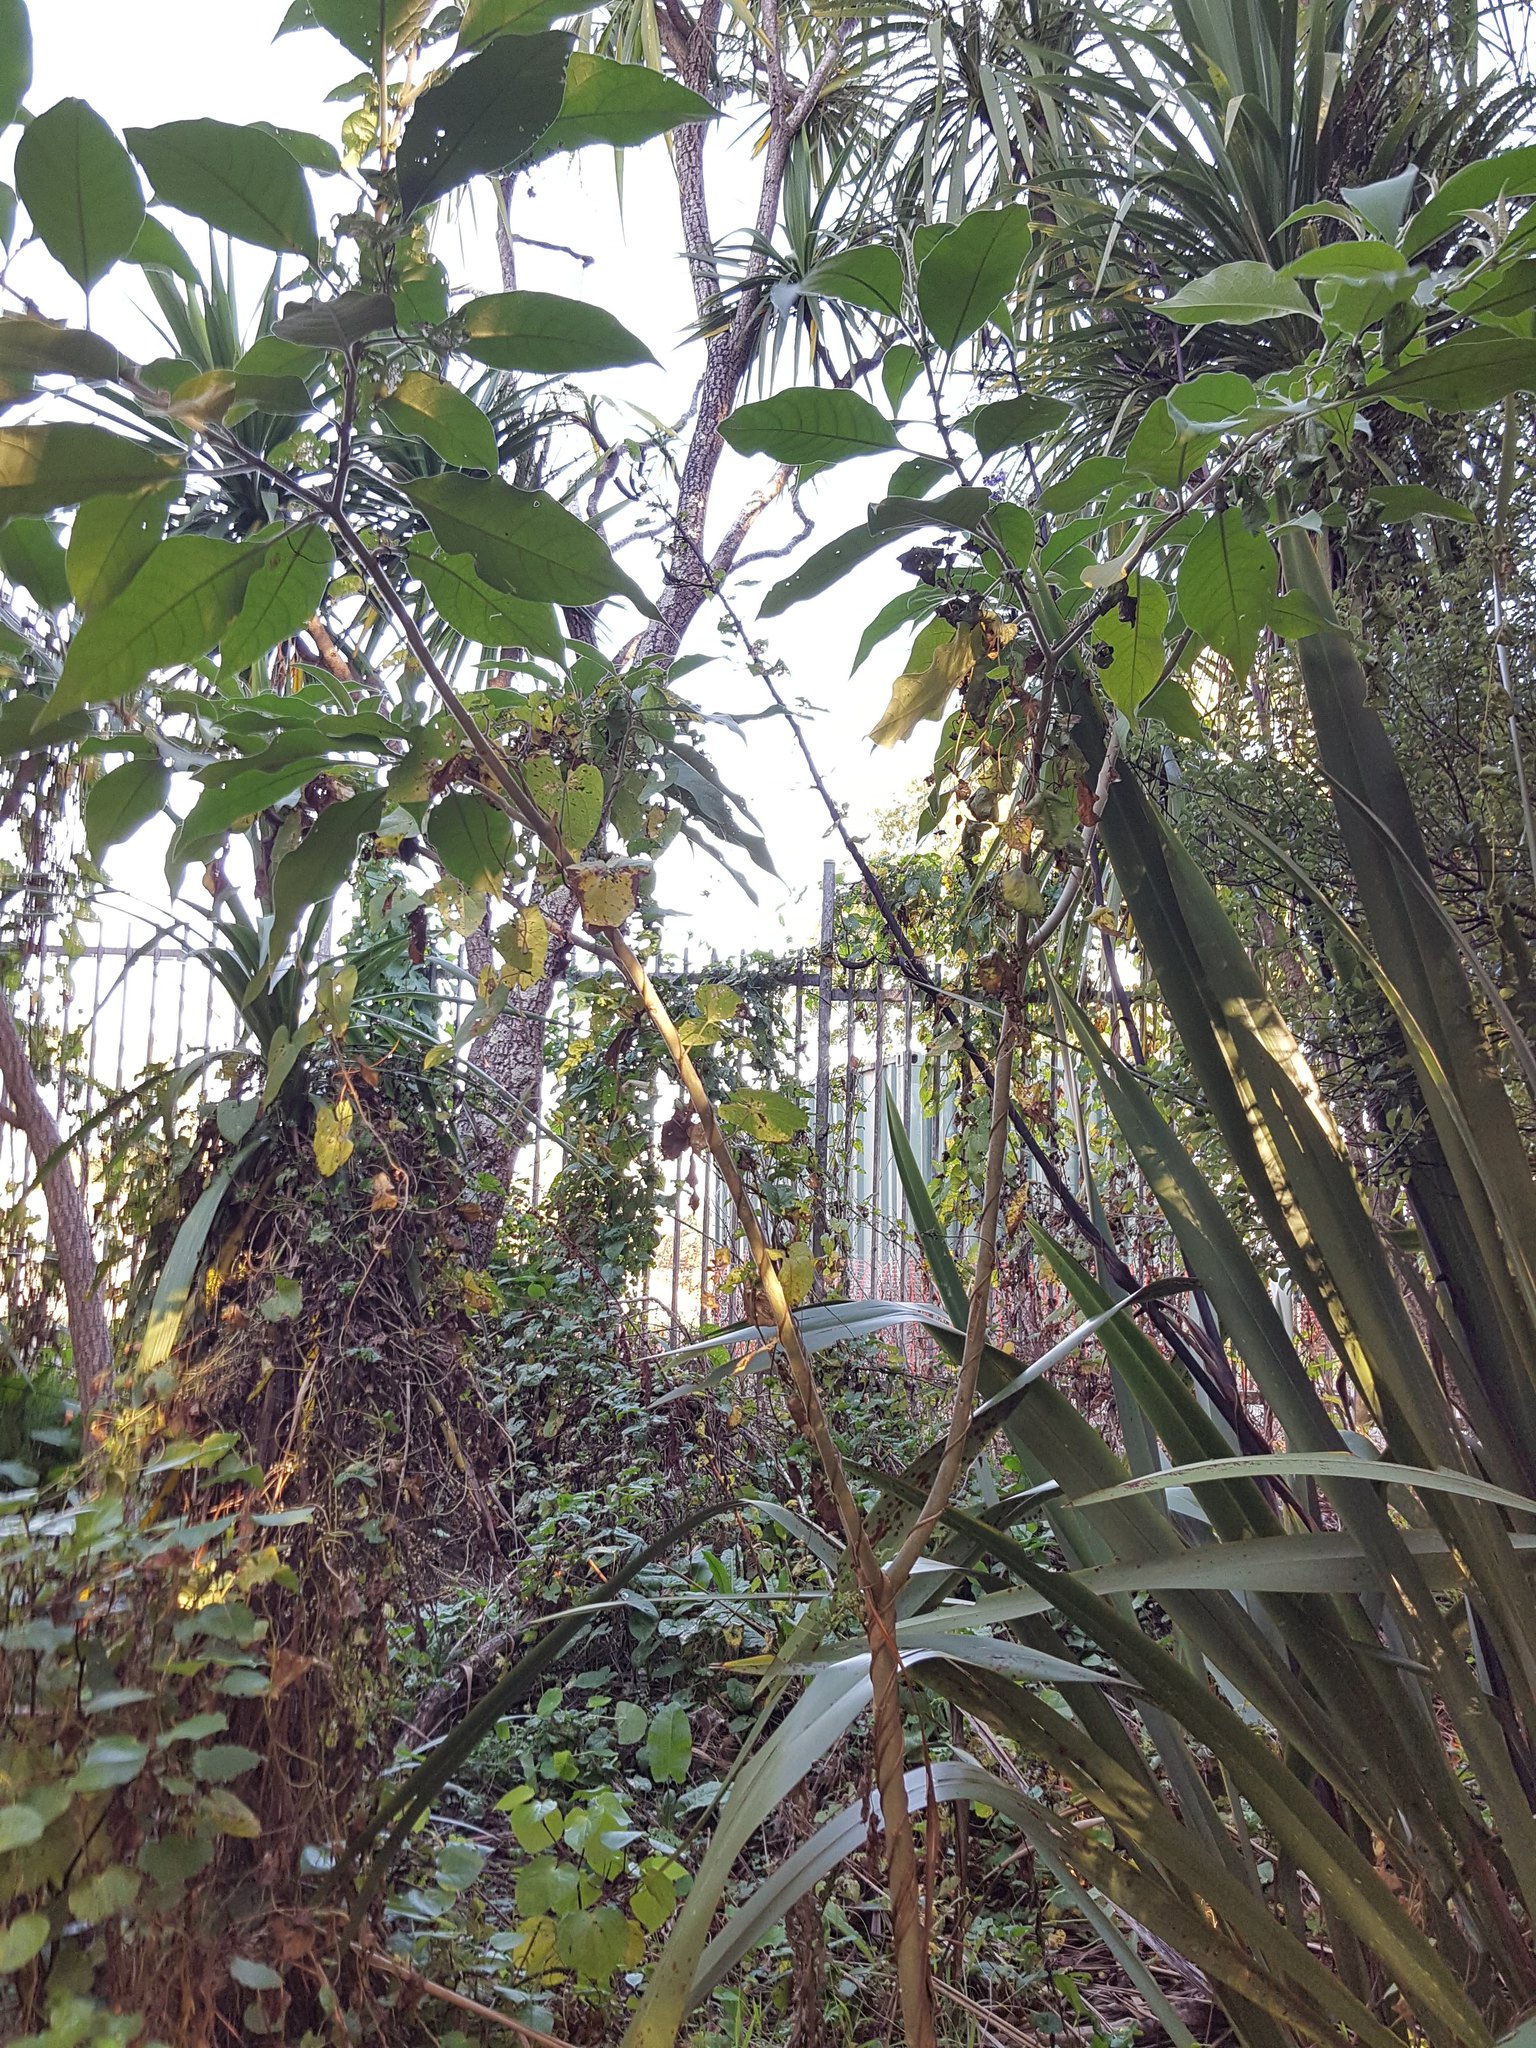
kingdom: Plantae
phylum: Tracheophyta
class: Magnoliopsida
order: Solanales
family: Solanaceae
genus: Solanum
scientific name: Solanum mauritianum
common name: Earleaf nightshade
